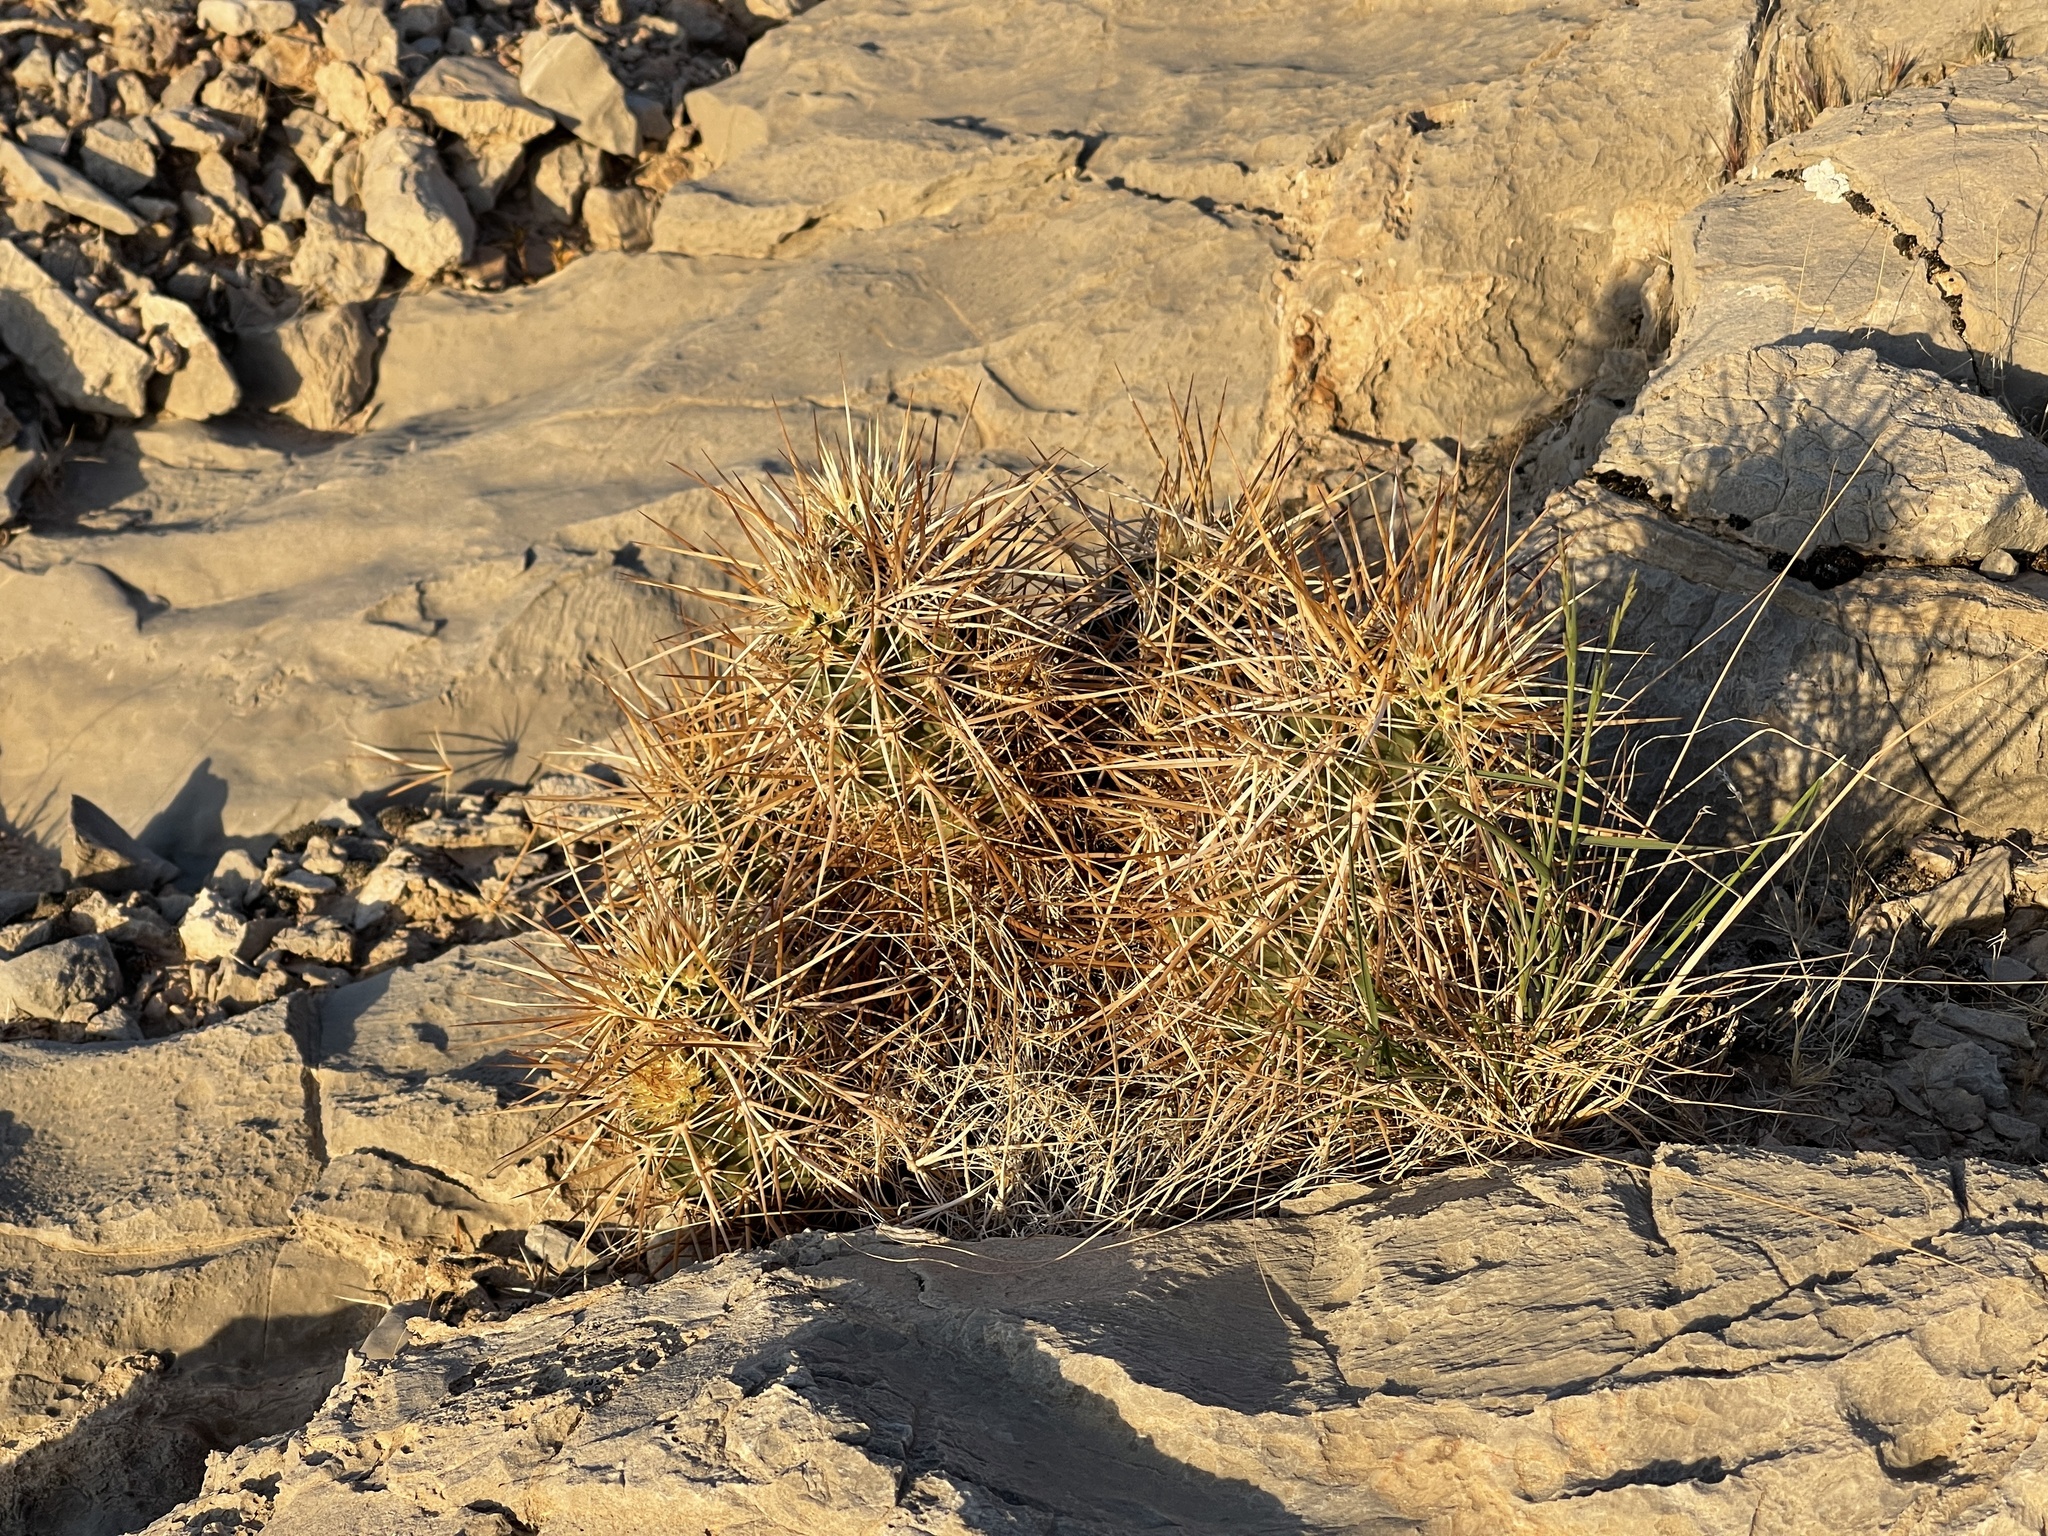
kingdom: Plantae
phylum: Tracheophyta
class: Magnoliopsida
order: Caryophyllales
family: Cactaceae
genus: Echinocereus
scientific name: Echinocereus engelmannii
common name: Engelmann's hedgehog cactus
